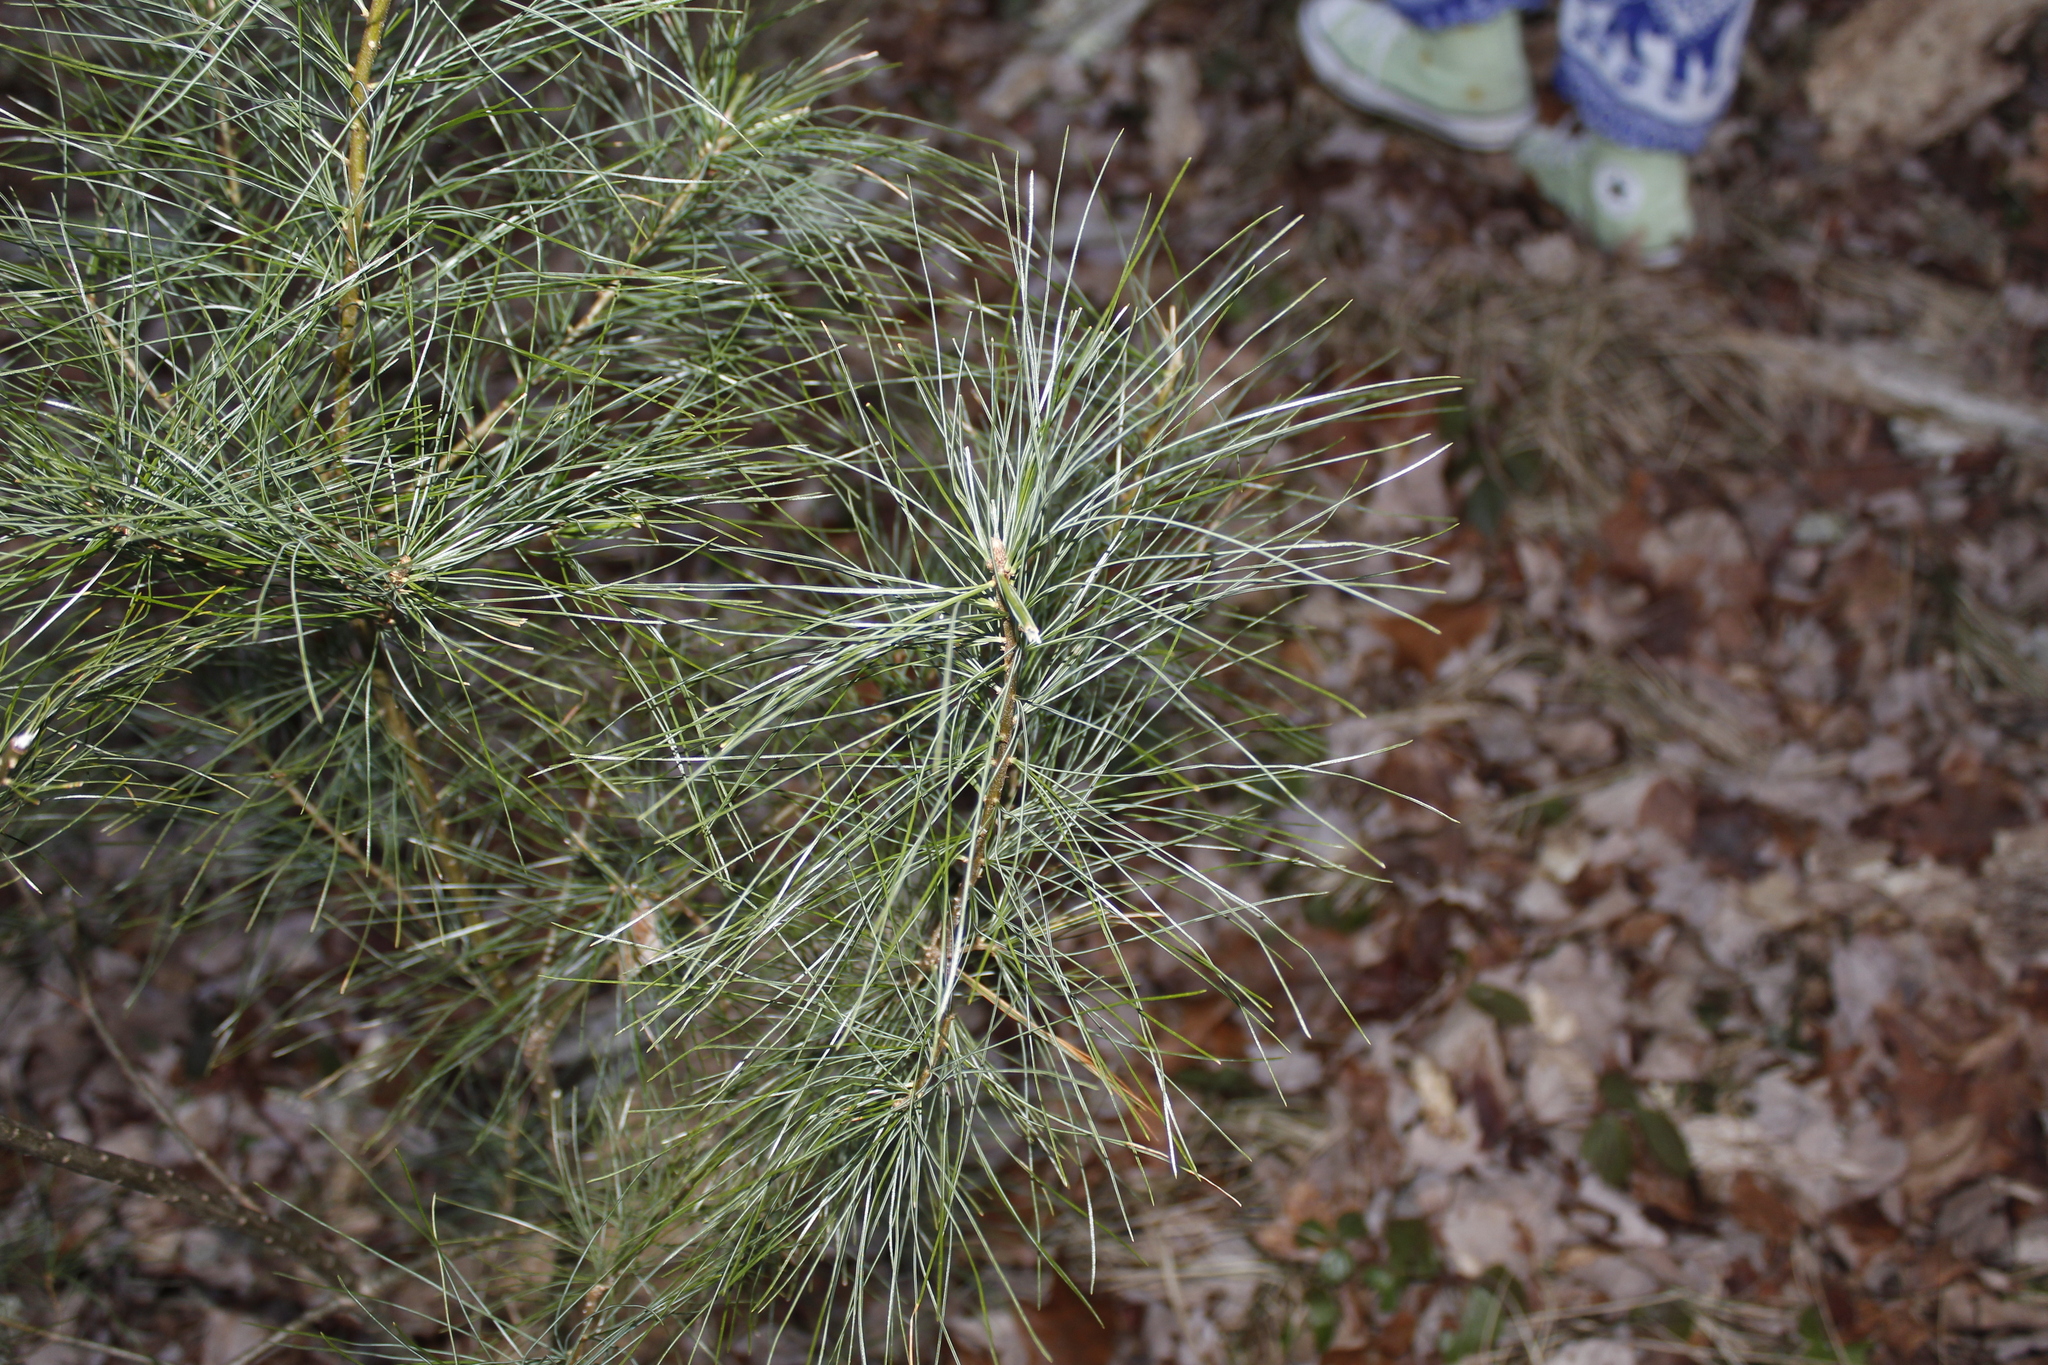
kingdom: Plantae
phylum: Tracheophyta
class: Pinopsida
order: Pinales
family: Pinaceae
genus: Pinus
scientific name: Pinus strobus
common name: Weymouth pine
